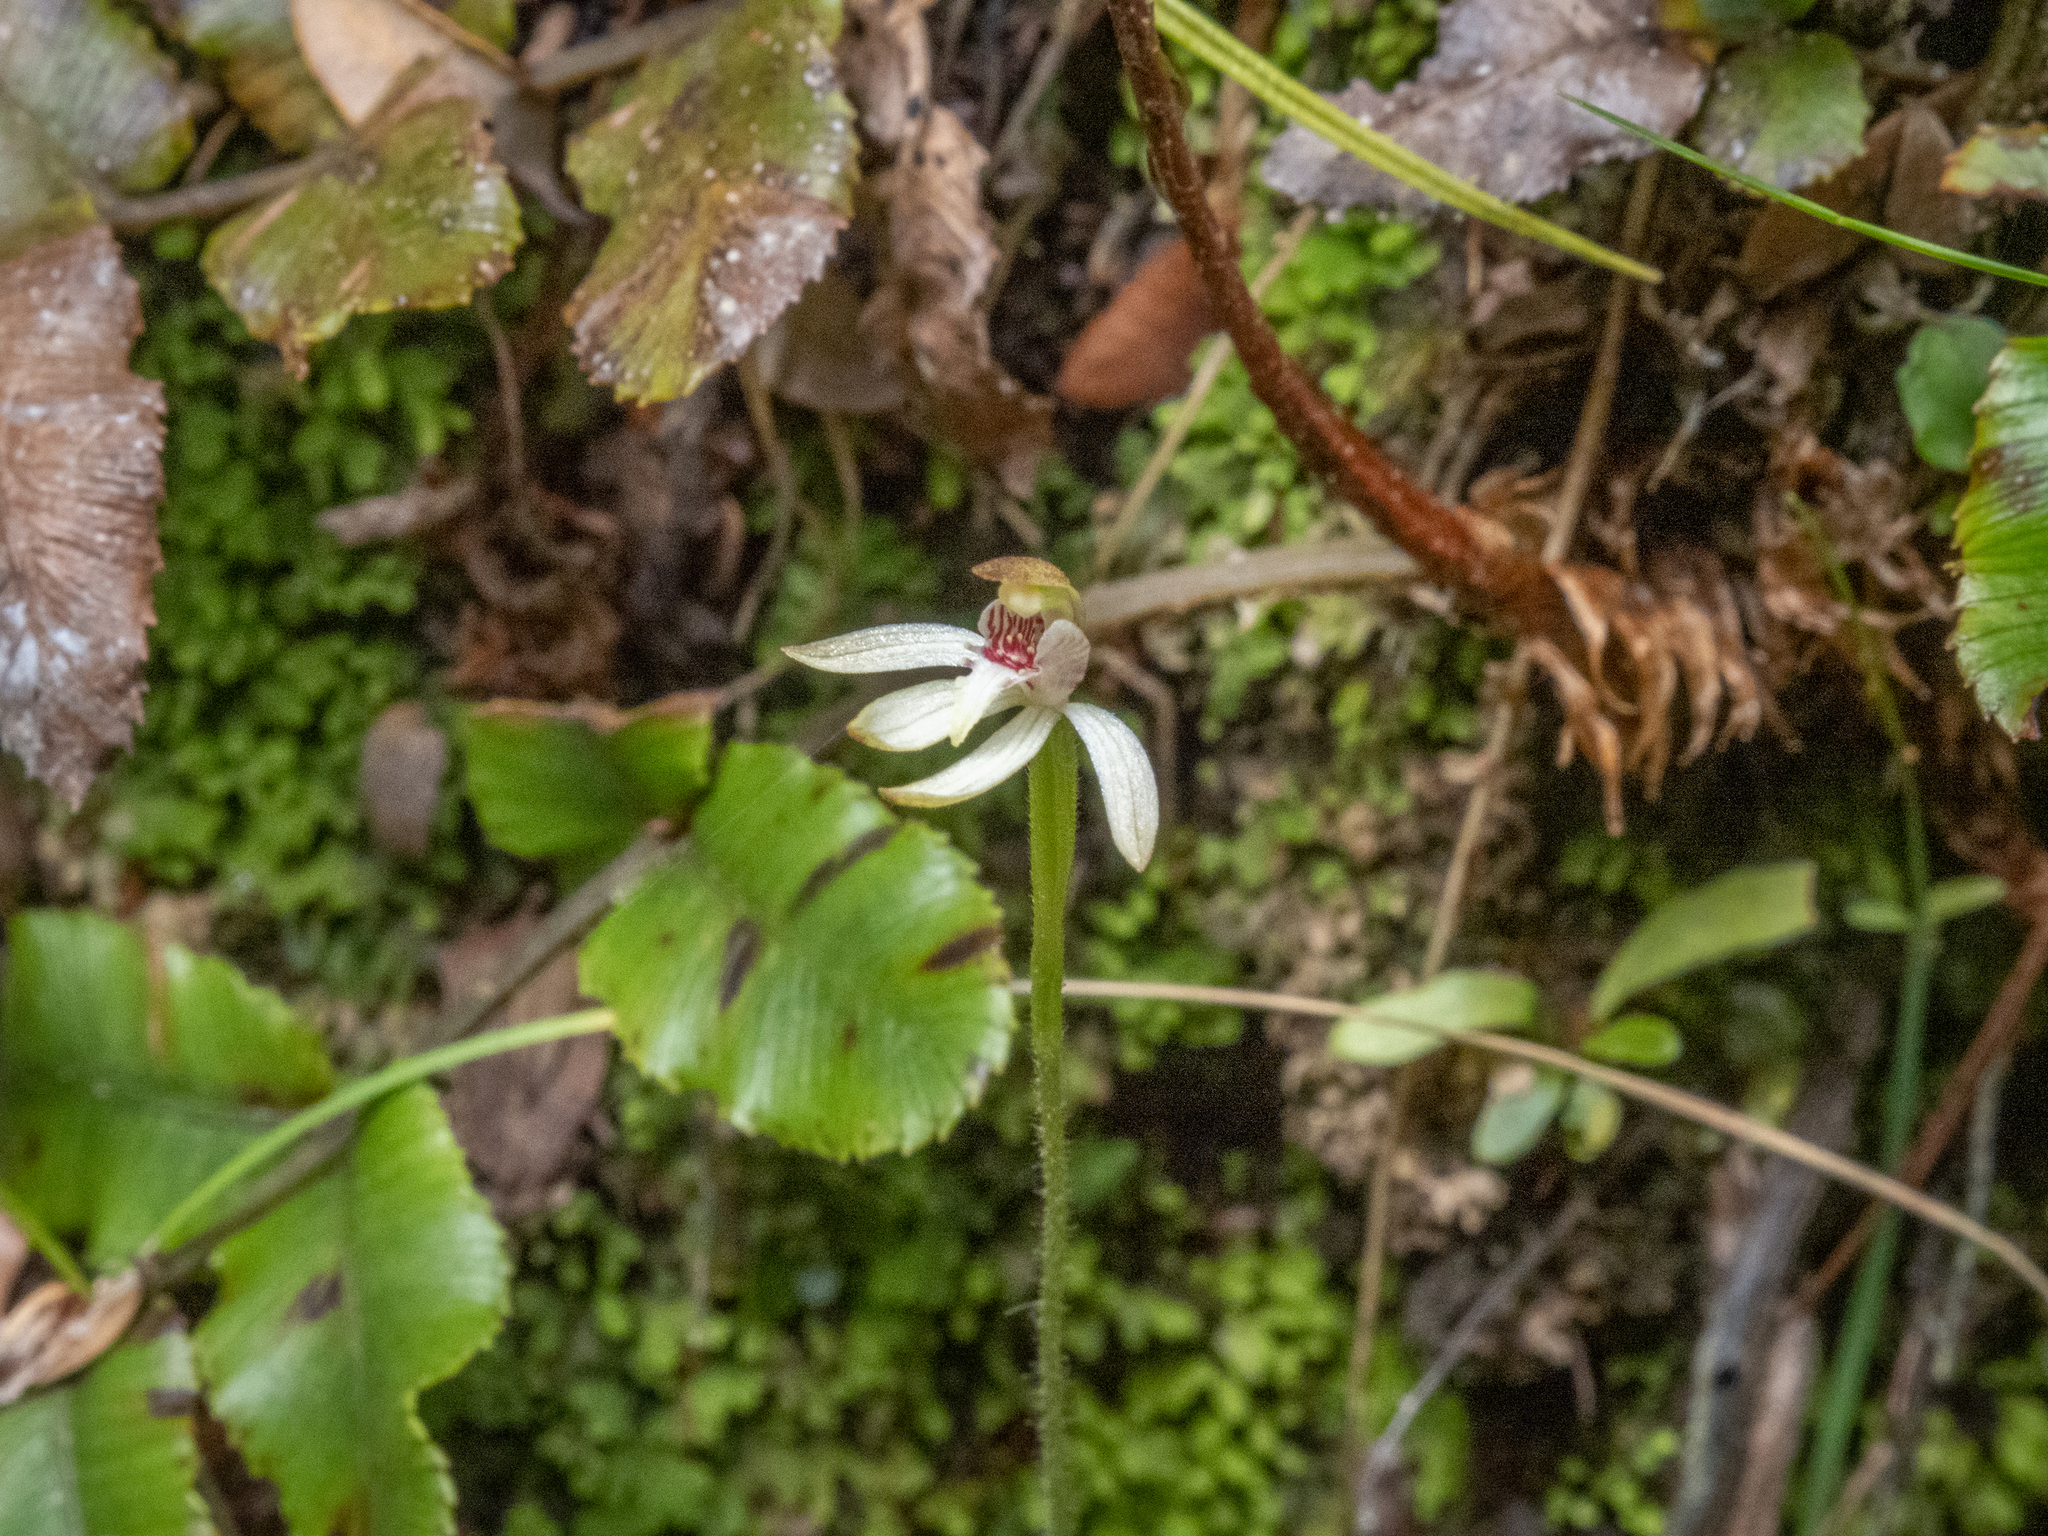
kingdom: Plantae
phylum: Tracheophyta
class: Liliopsida
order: Asparagales
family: Orchidaceae
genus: Caladenia
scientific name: Caladenia chlorostyla
